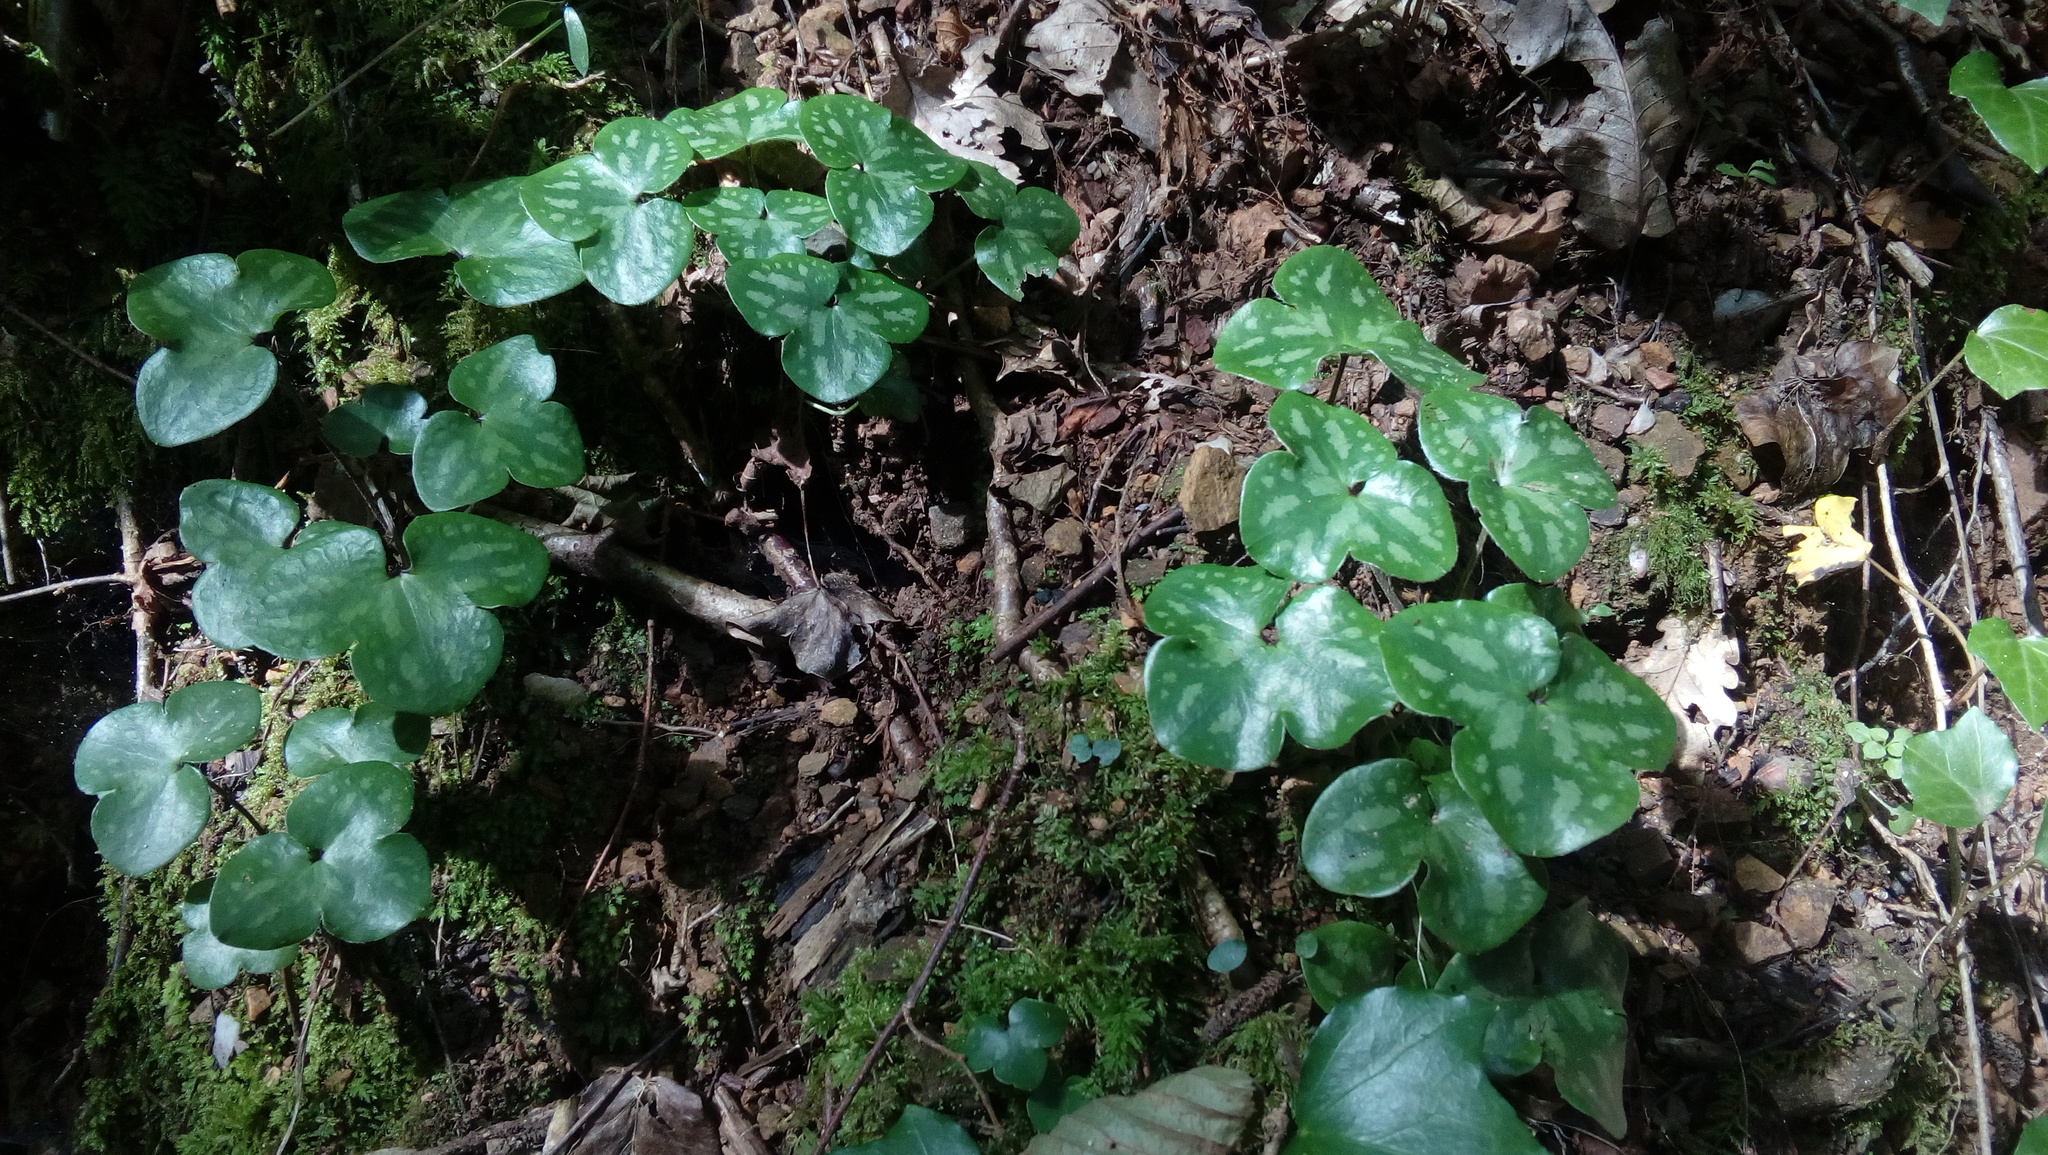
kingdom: Plantae
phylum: Tracheophyta
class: Magnoliopsida
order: Ranunculales
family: Ranunculaceae
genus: Hepatica
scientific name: Hepatica nobilis
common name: Liverleaf
